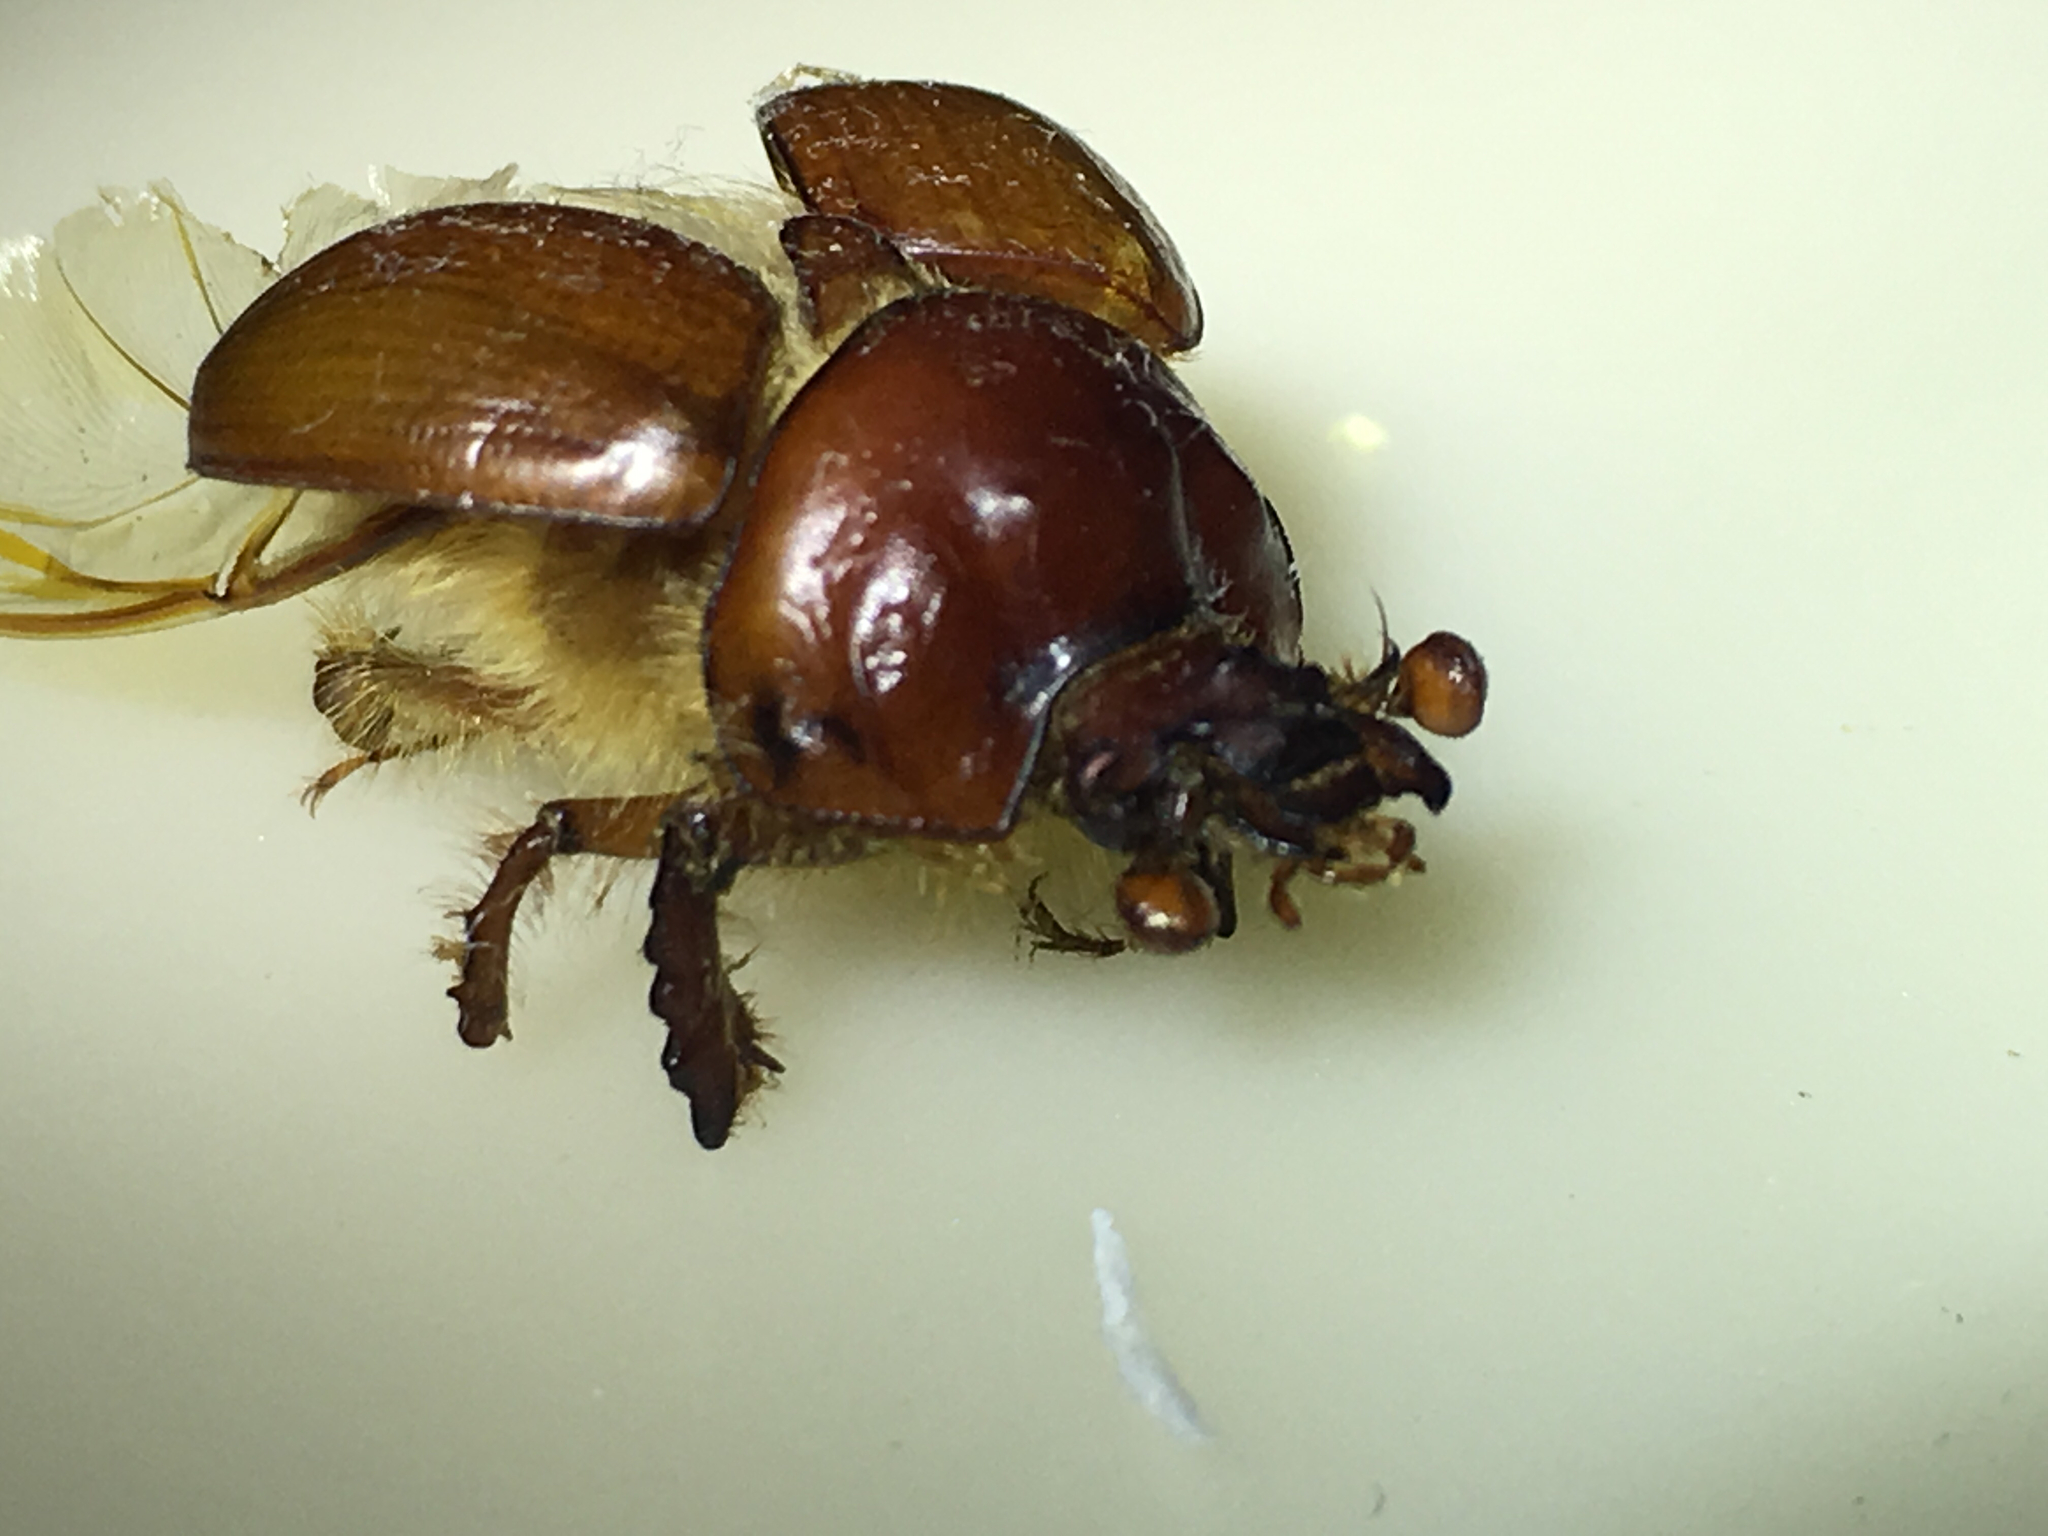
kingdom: Animalia
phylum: Arthropoda
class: Insecta
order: Coleoptera
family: Geotrupidae
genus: Bolbocerastes
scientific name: Bolbocerastes regalis
